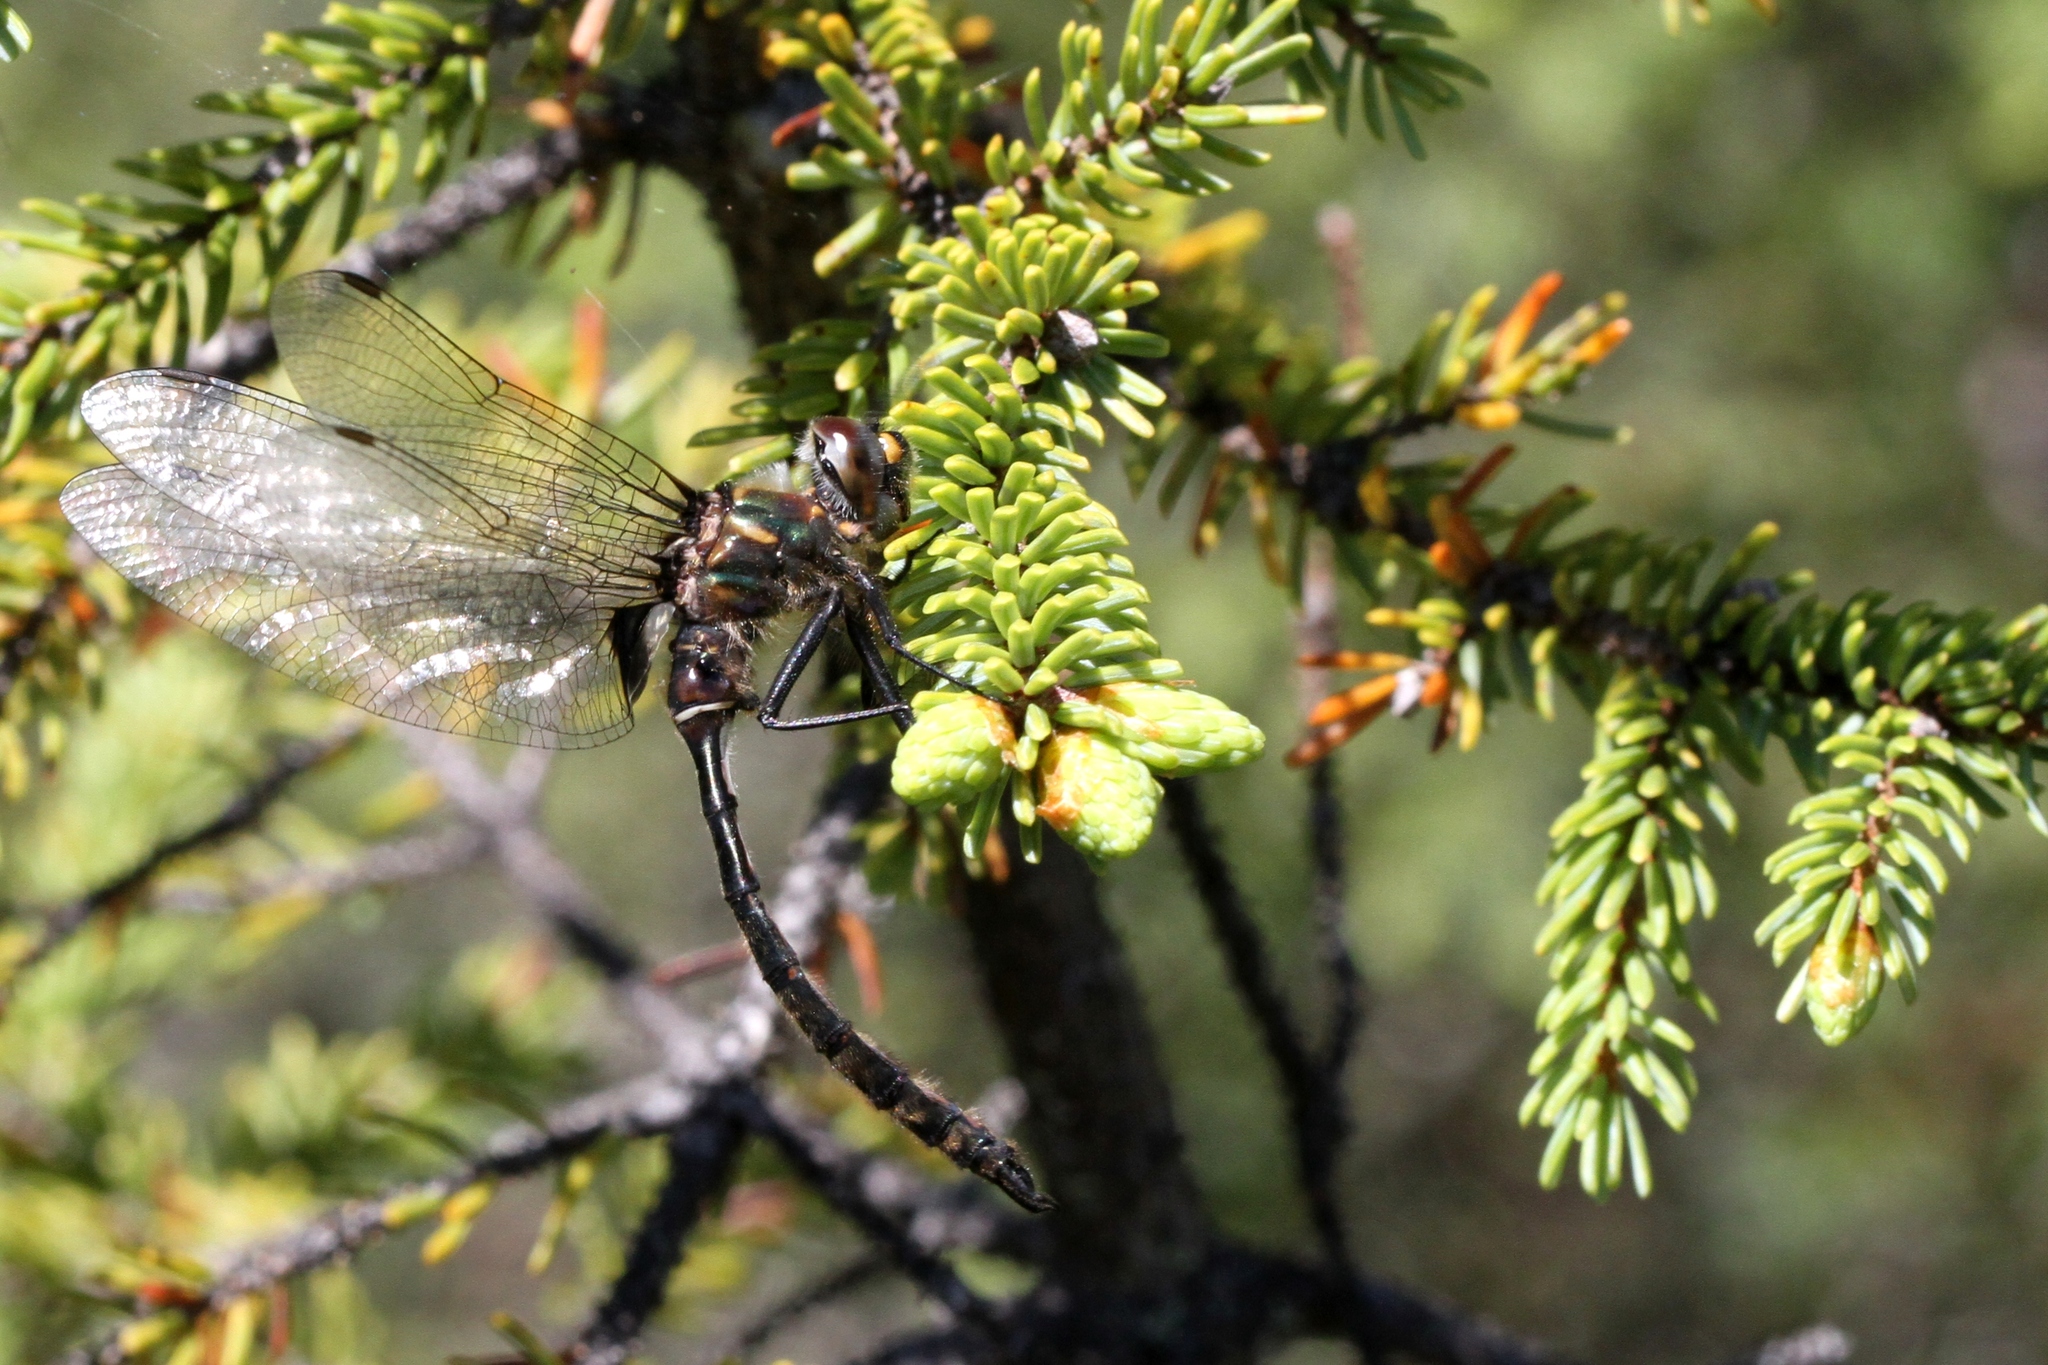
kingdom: Animalia
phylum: Arthropoda
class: Insecta
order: Odonata
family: Corduliidae
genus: Somatochlora
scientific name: Somatochlora septentrionalis
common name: Muskeg emerald
